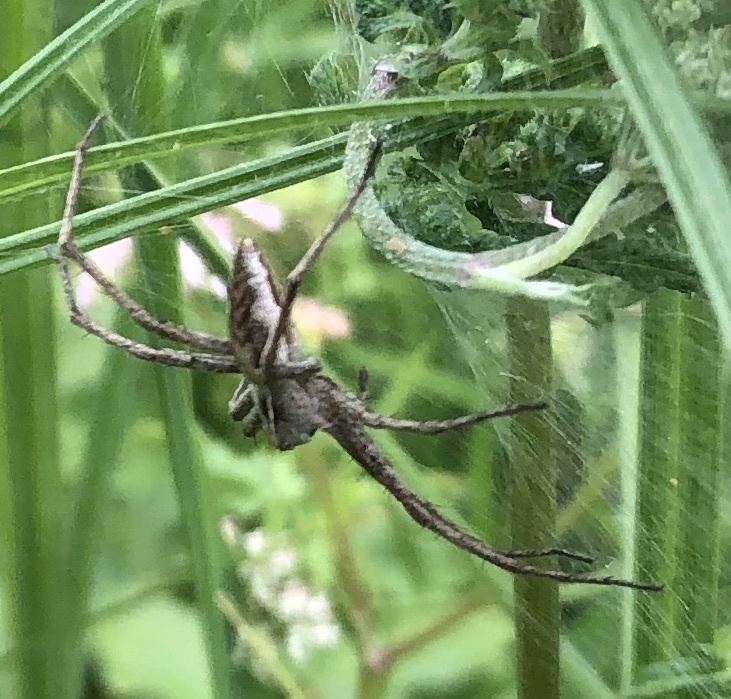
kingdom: Animalia
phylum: Arthropoda
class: Arachnida
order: Araneae
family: Pisauridae
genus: Pisaura
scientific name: Pisaura mirabilis
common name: Tent spider
